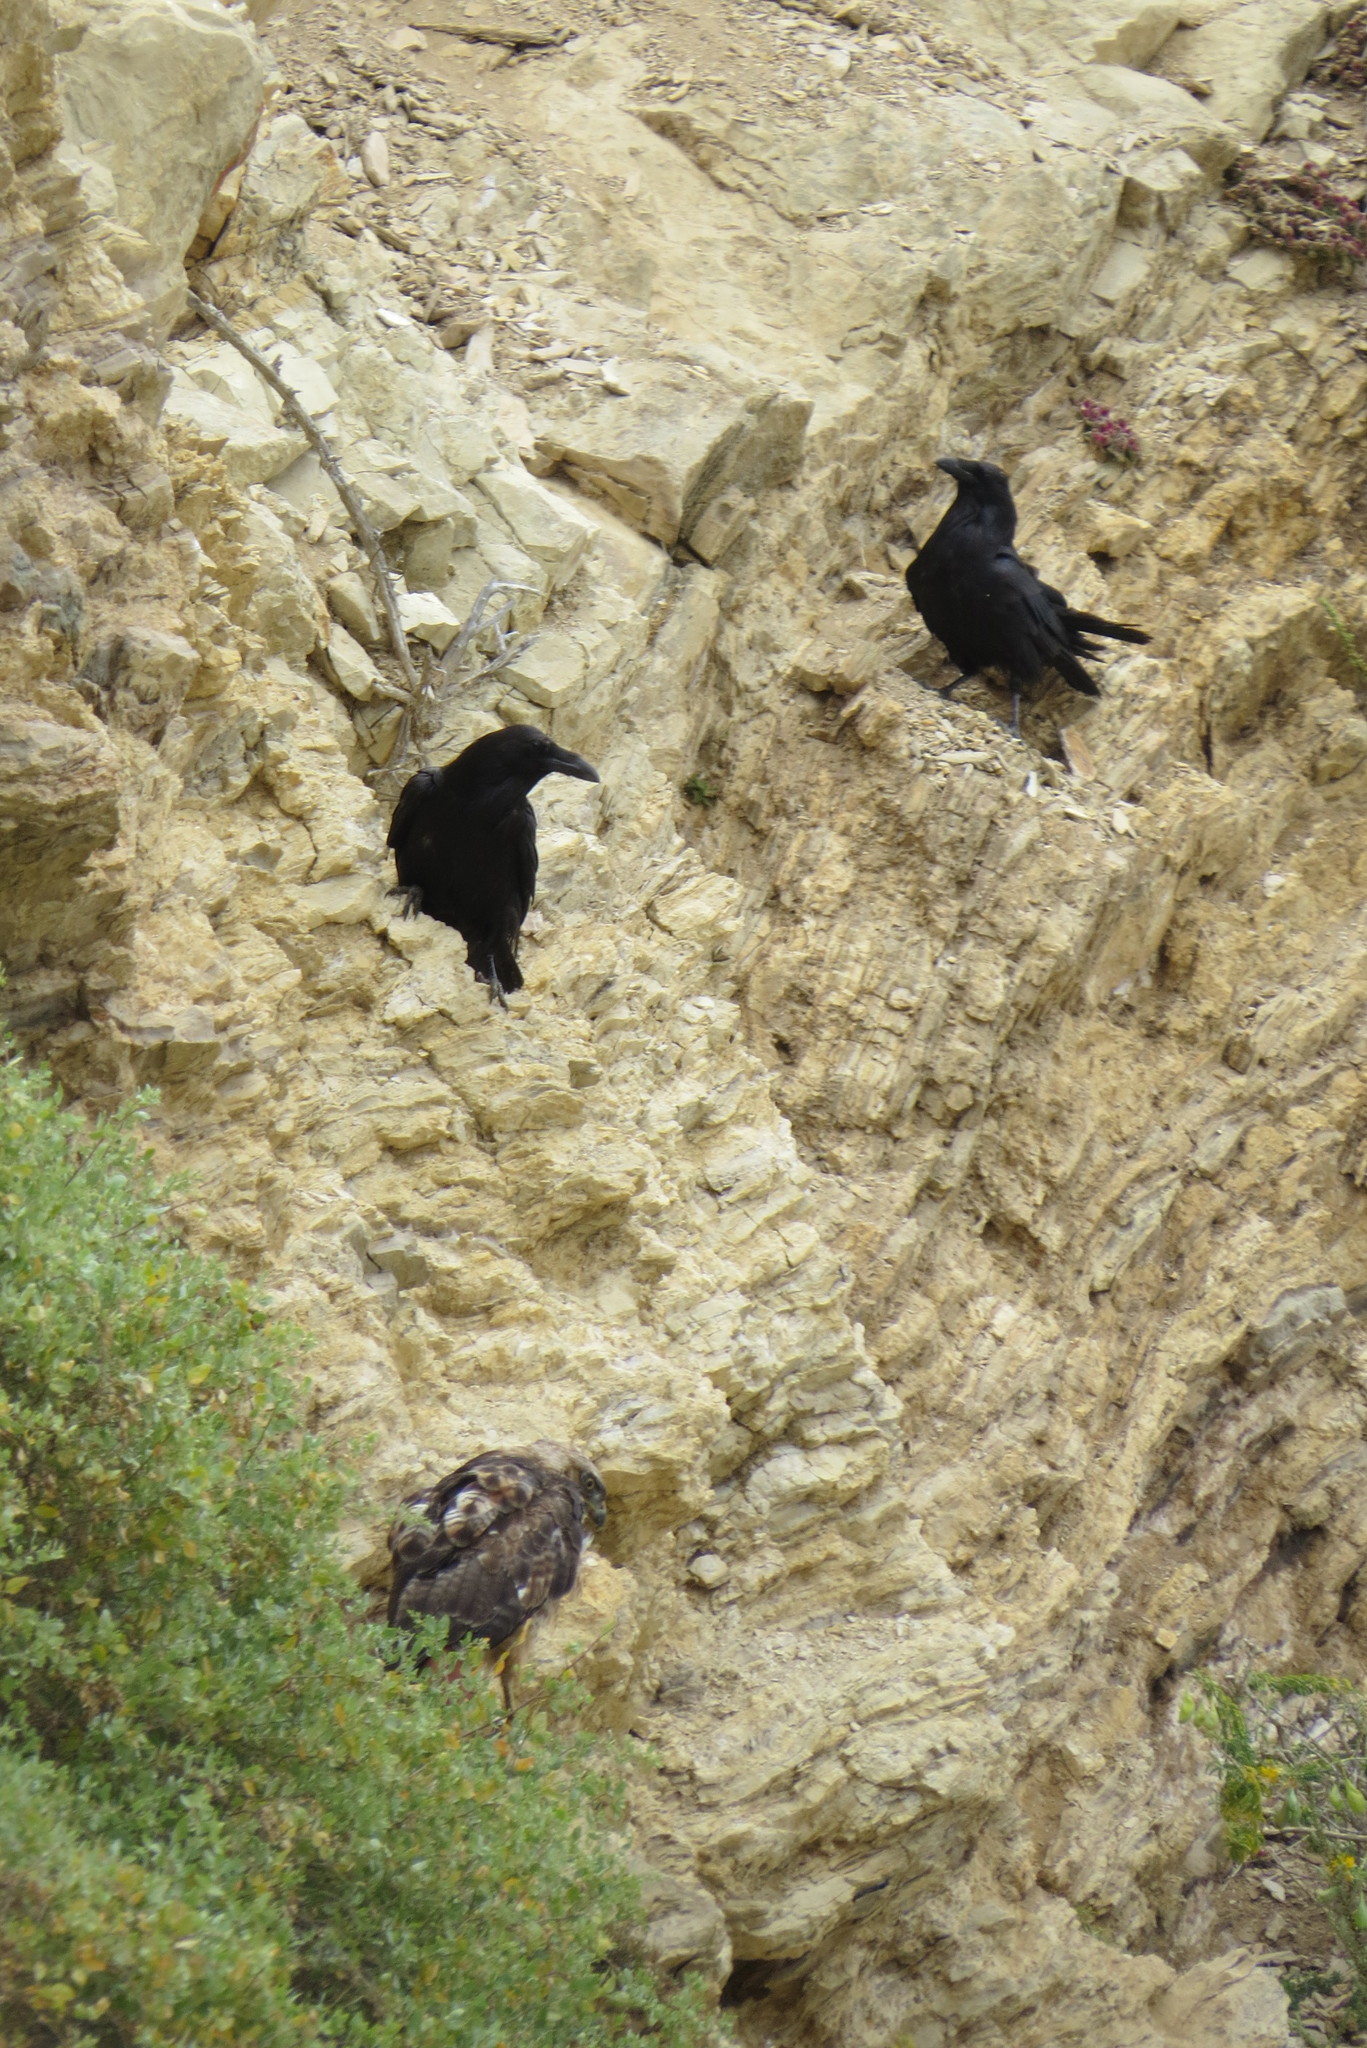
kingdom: Animalia
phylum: Chordata
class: Aves
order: Passeriformes
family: Corvidae
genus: Corvus
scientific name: Corvus corax
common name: Common raven
